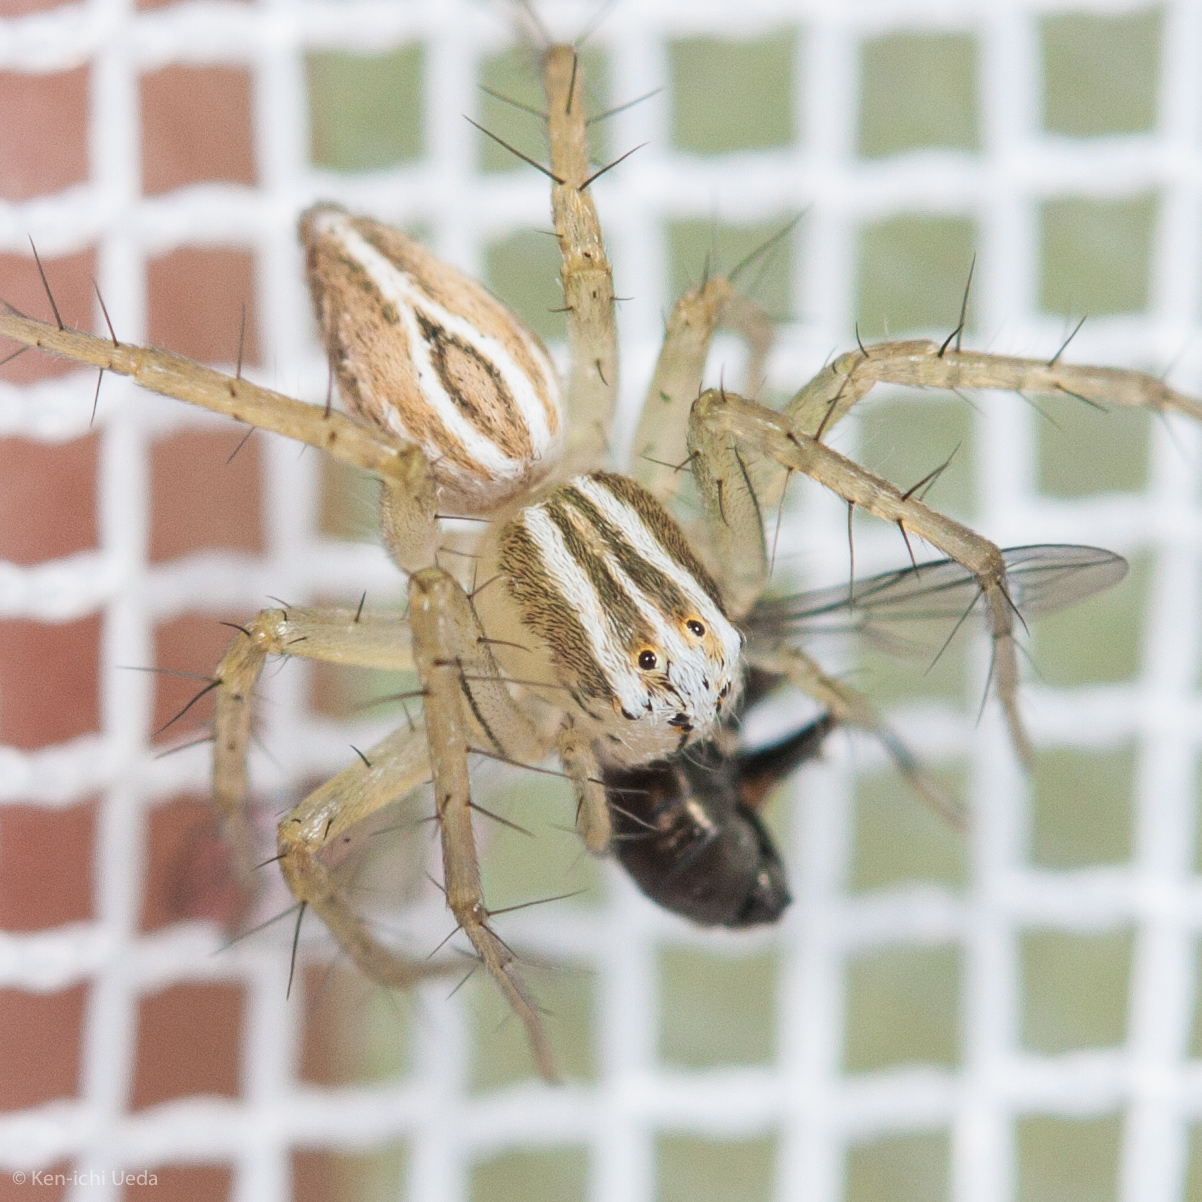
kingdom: Animalia
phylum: Arthropoda
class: Arachnida
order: Araneae
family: Oxyopidae
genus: Oxyopes
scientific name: Oxyopes salticus
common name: Lynx spiders
